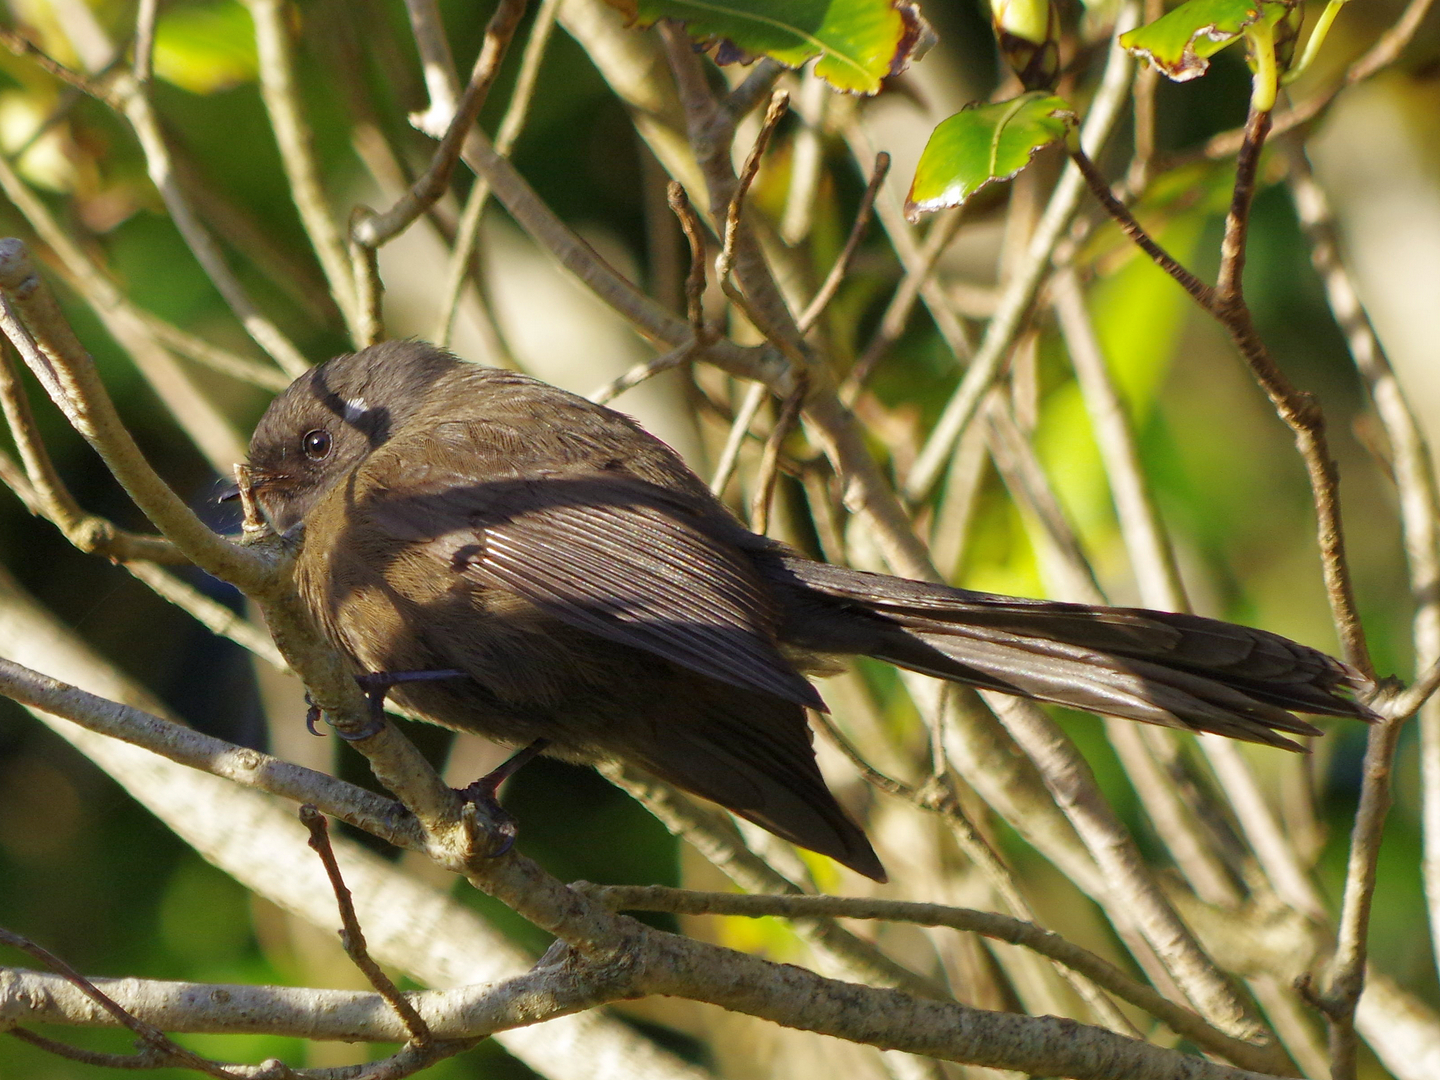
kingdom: Animalia
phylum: Chordata
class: Aves
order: Passeriformes
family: Rhipiduridae
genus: Rhipidura
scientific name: Rhipidura fuliginosa
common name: New zealand fantail
